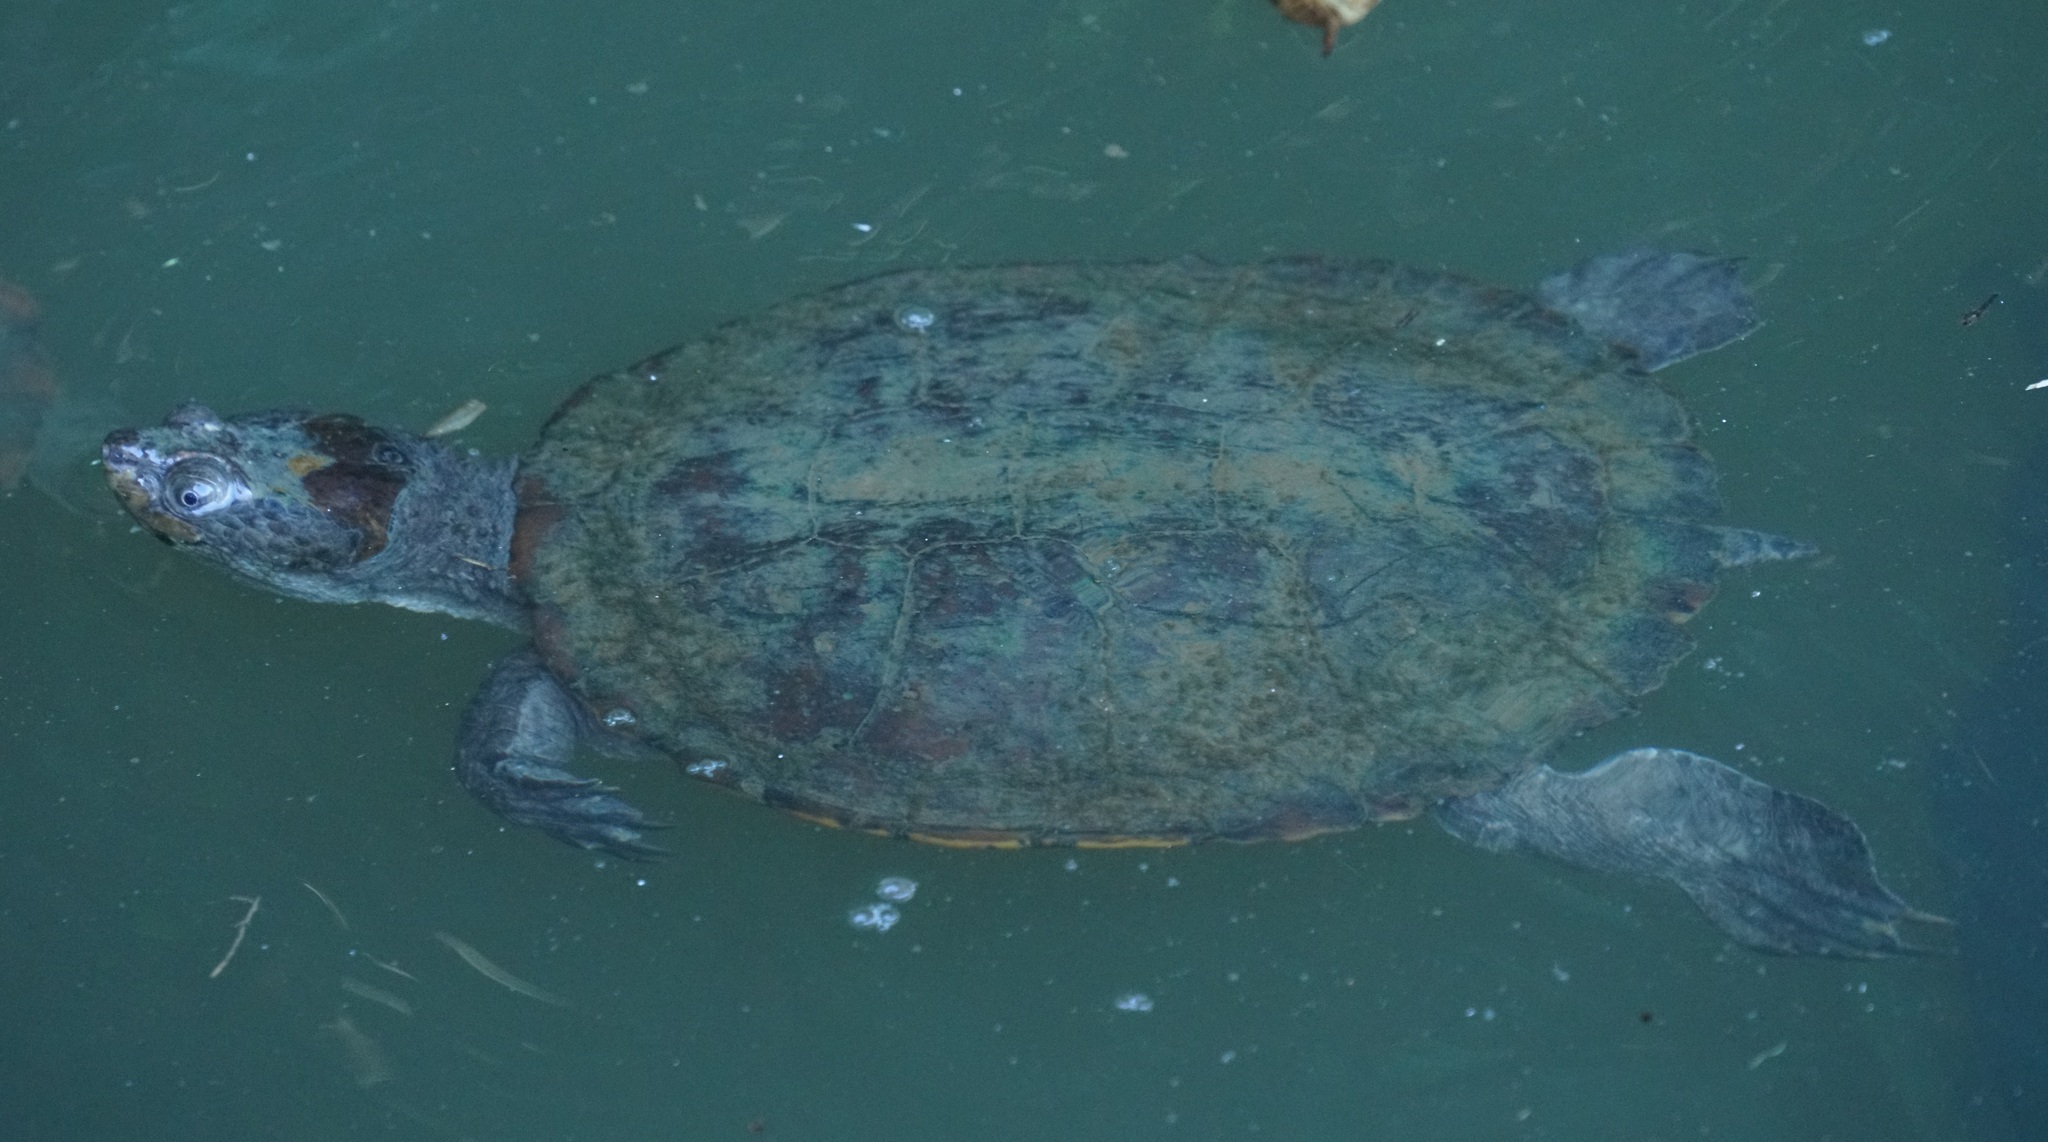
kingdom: Animalia
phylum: Chordata
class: Testudines
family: Chelidae
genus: Myuchelys
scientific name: Myuchelys latisternum
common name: Serrated snapping turtle
